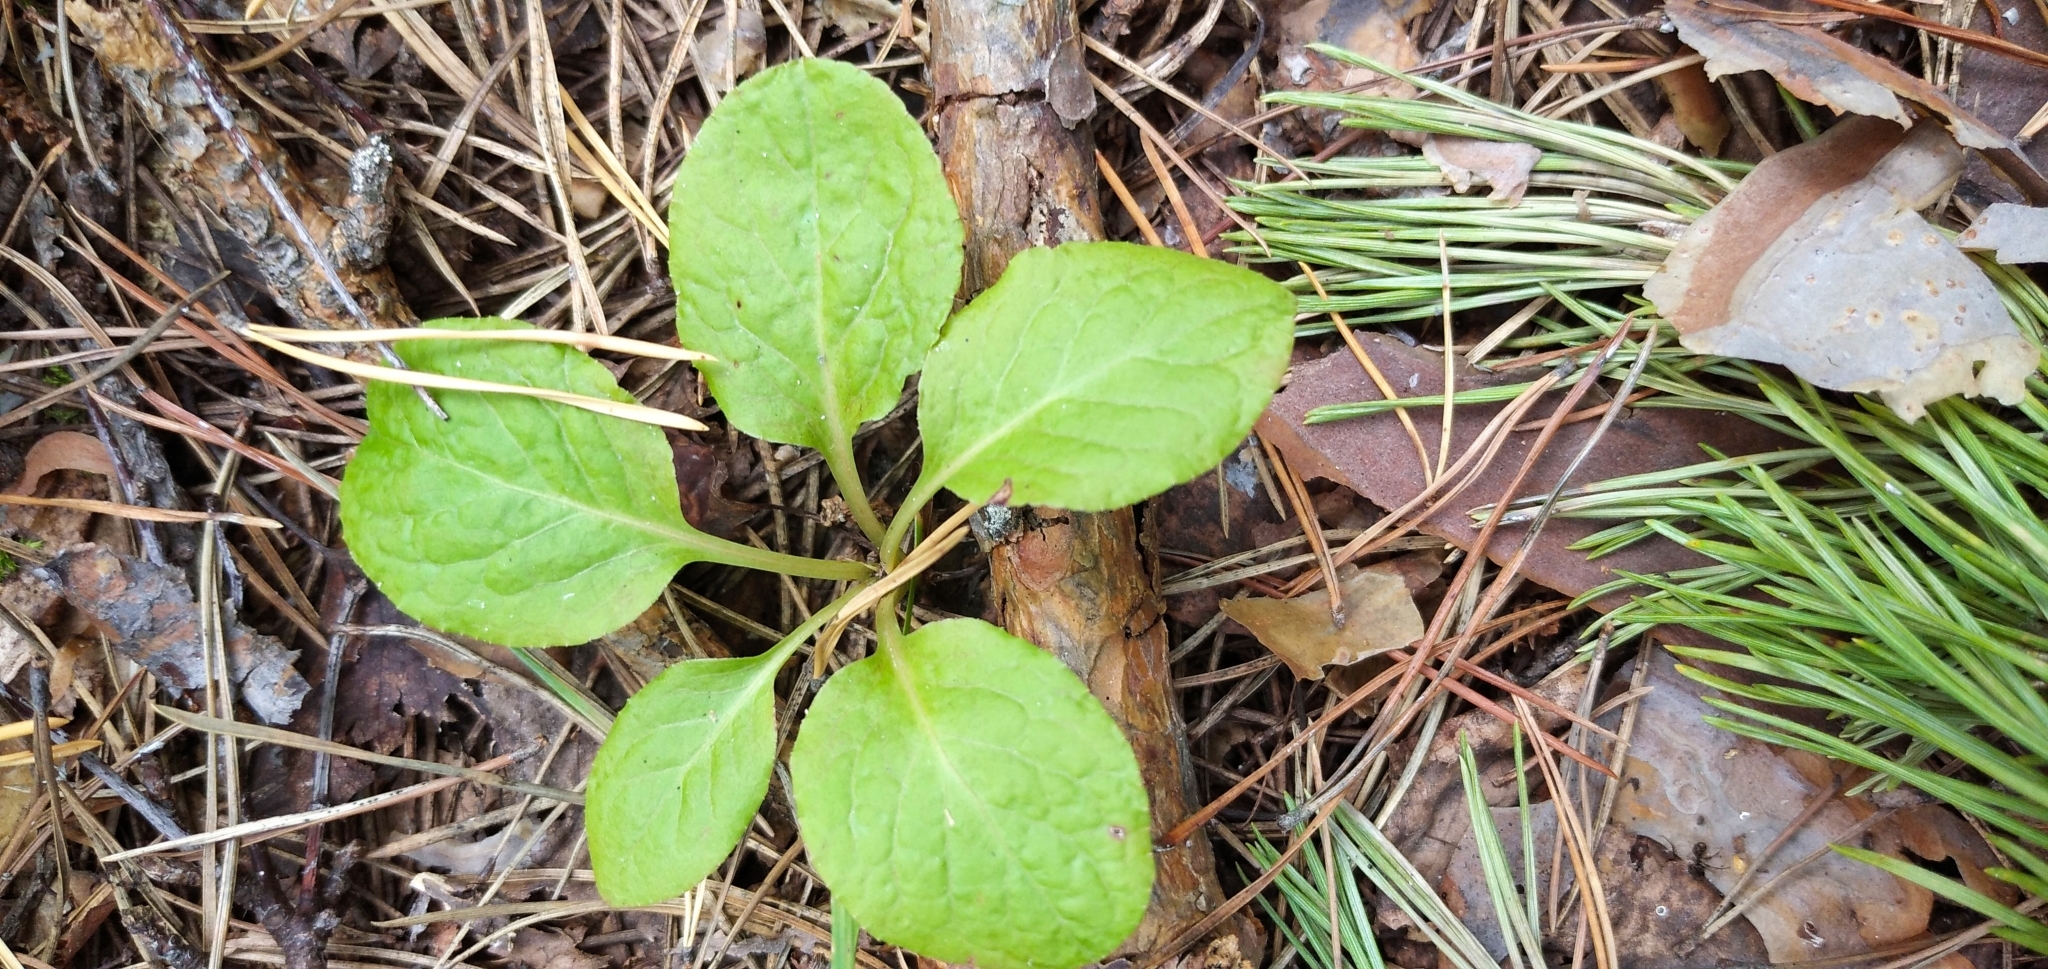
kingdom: Plantae
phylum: Tracheophyta
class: Magnoliopsida
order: Ericales
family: Ericaceae
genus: Pyrola
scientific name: Pyrola minor
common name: Common wintergreen
